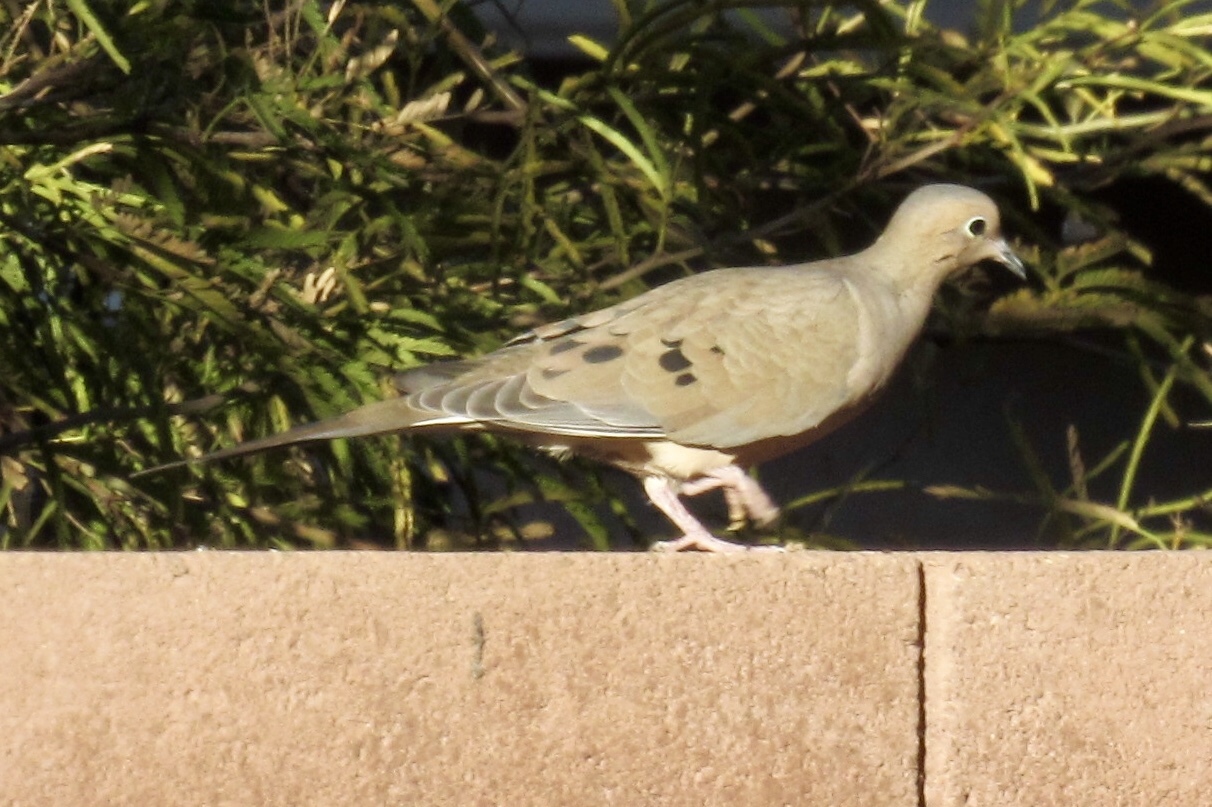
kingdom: Animalia
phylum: Chordata
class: Aves
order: Columbiformes
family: Columbidae
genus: Zenaida
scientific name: Zenaida macroura
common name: Mourning dove
